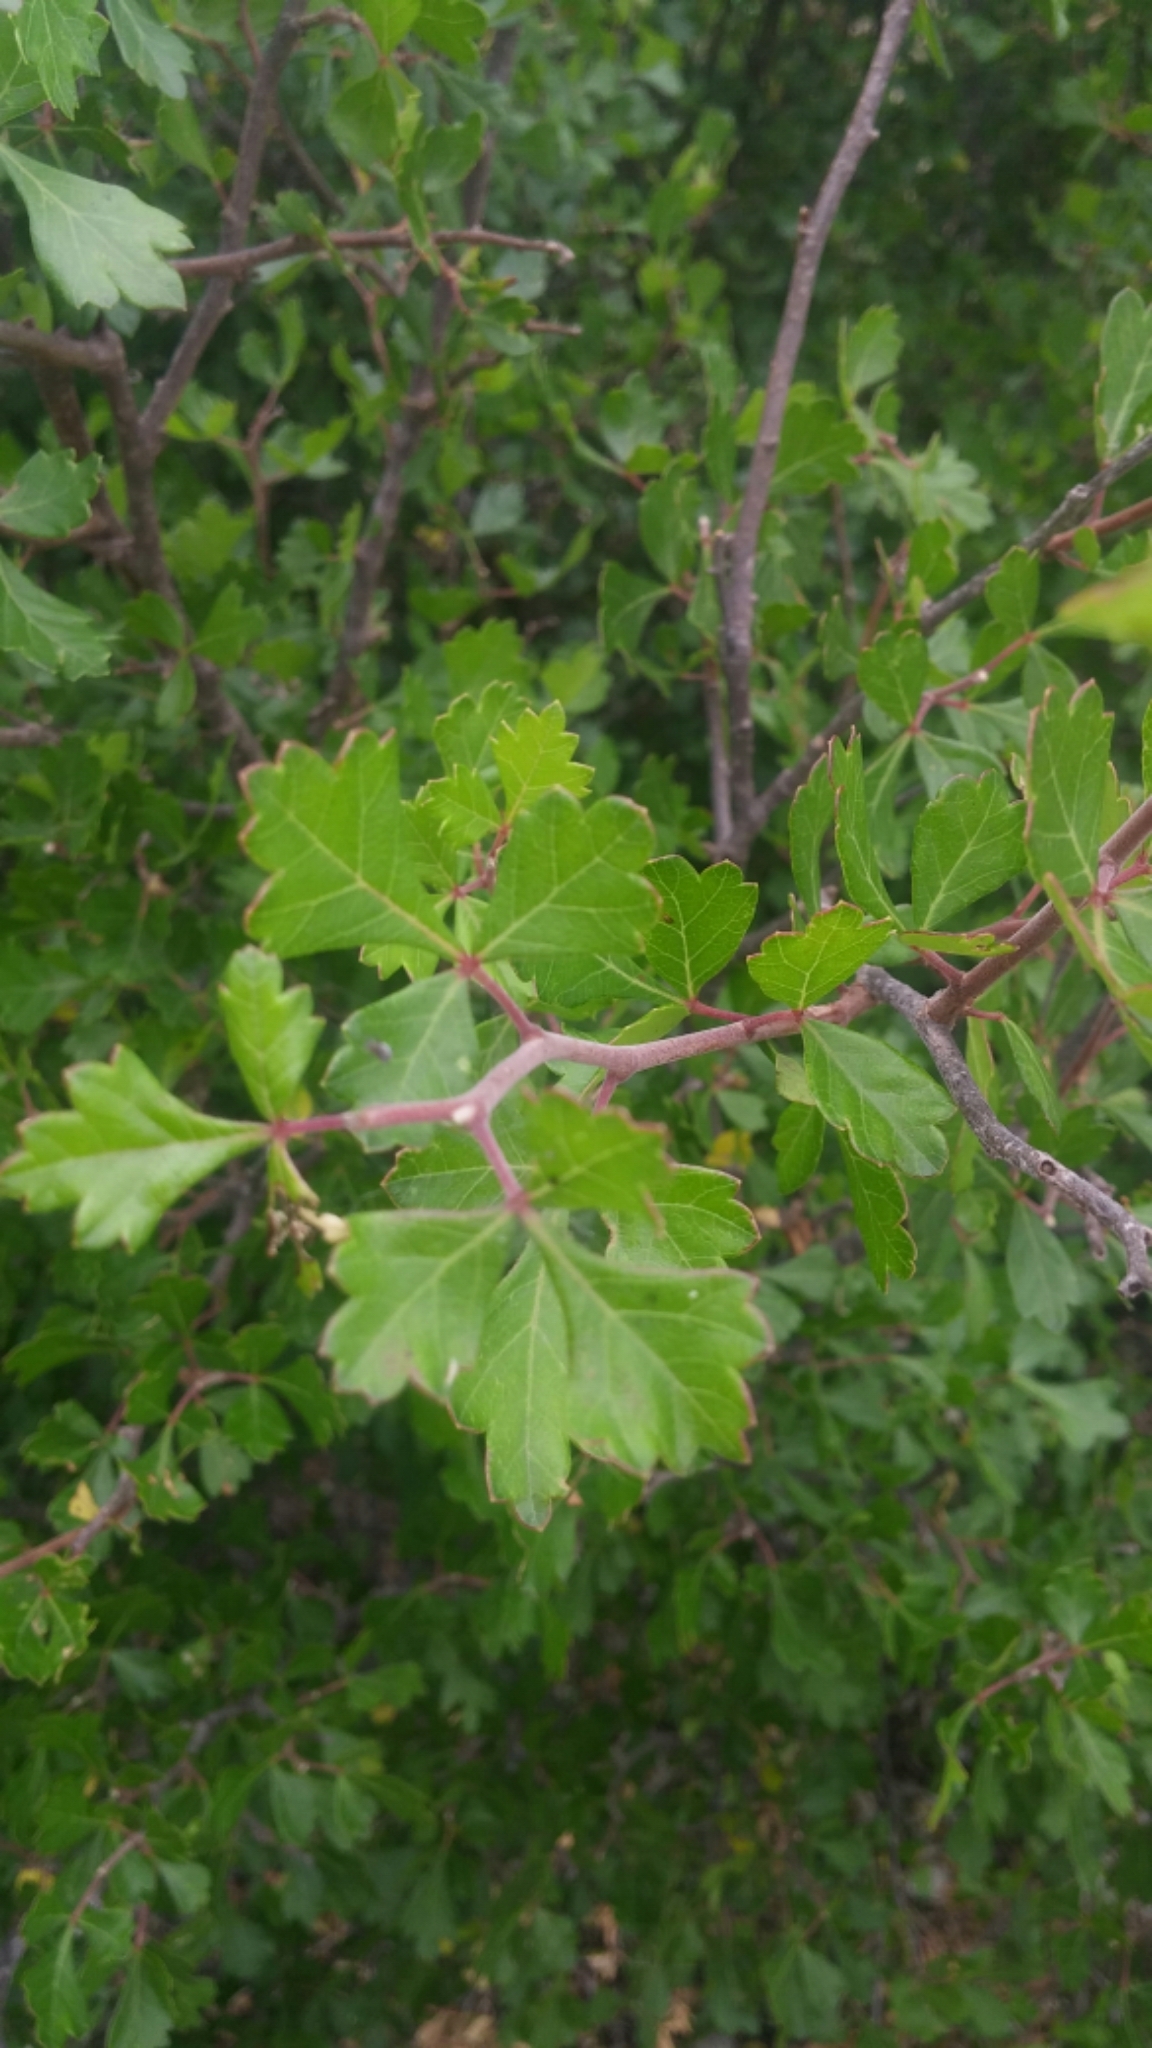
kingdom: Plantae
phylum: Tracheophyta
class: Magnoliopsida
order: Sapindales
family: Anacardiaceae
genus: Rhus
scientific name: Rhus aromatica
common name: Aromatic sumac
